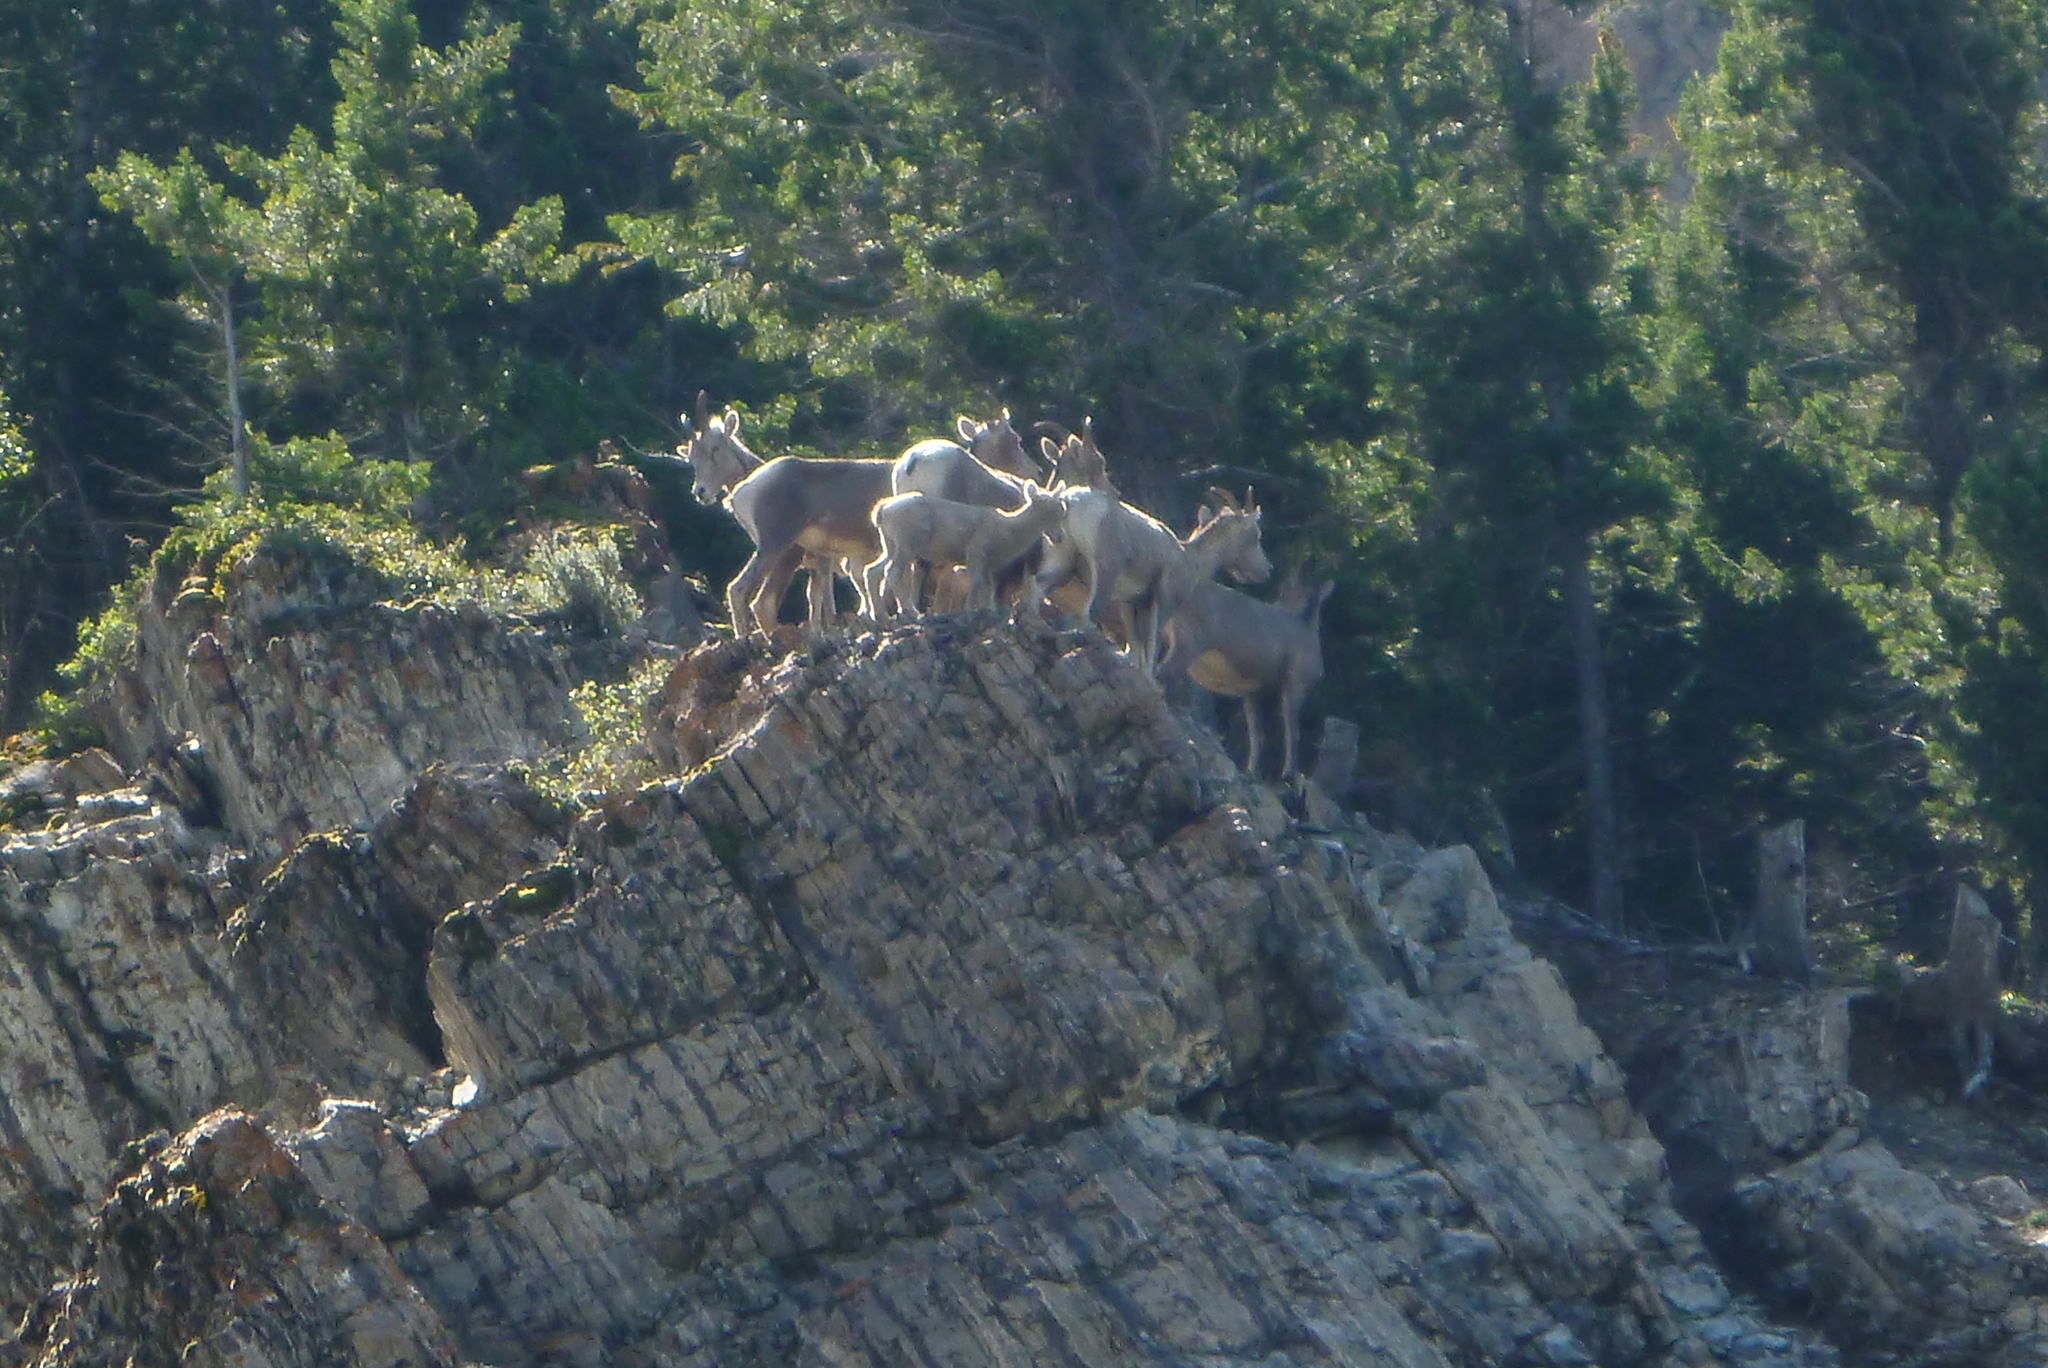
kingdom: Animalia
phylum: Chordata
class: Mammalia
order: Artiodactyla
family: Bovidae
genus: Ovis
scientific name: Ovis canadensis
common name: Bighorn sheep
